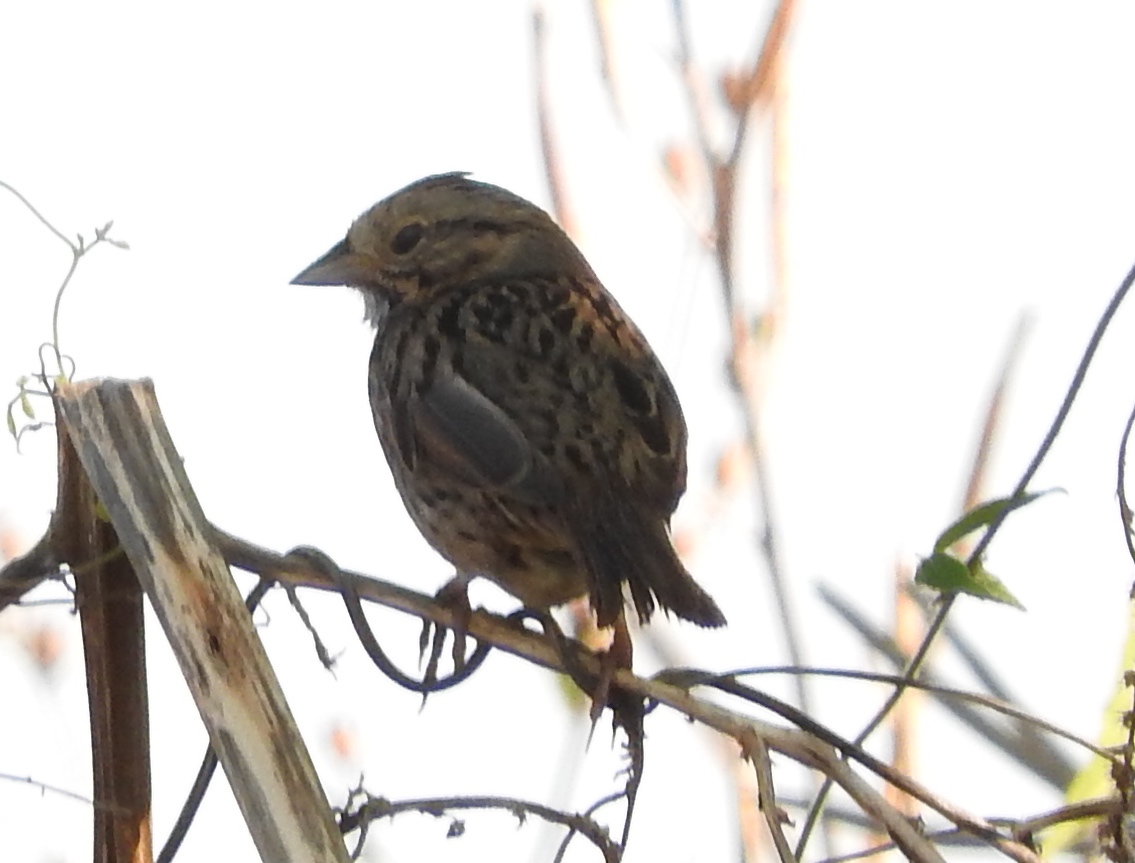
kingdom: Animalia
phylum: Chordata
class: Aves
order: Passeriformes
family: Passerellidae
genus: Melospiza
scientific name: Melospiza lincolnii
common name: Lincoln's sparrow
